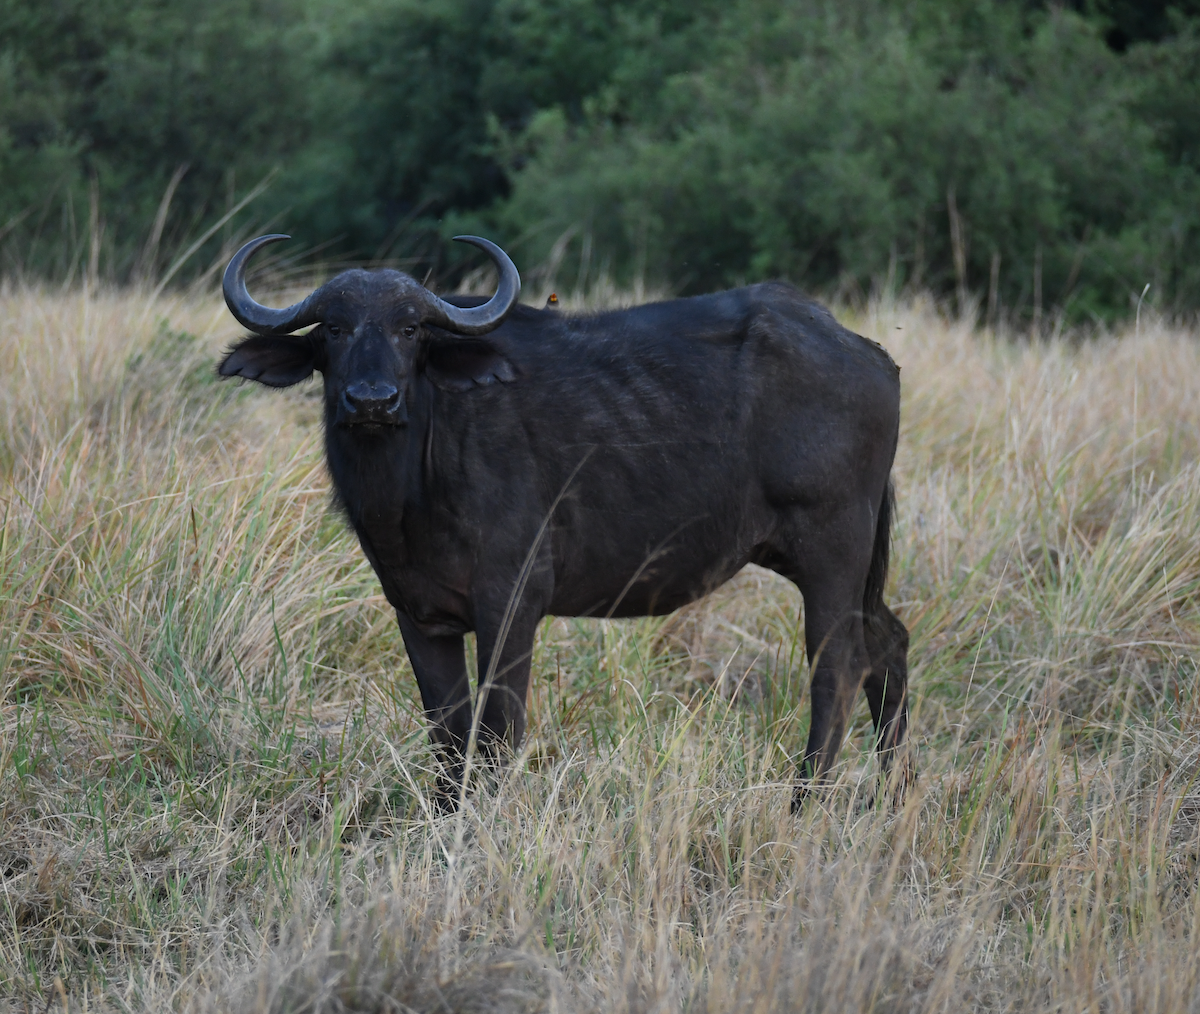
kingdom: Animalia
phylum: Chordata
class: Mammalia
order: Artiodactyla
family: Bovidae
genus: Syncerus
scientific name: Syncerus caffer
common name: African buffalo
